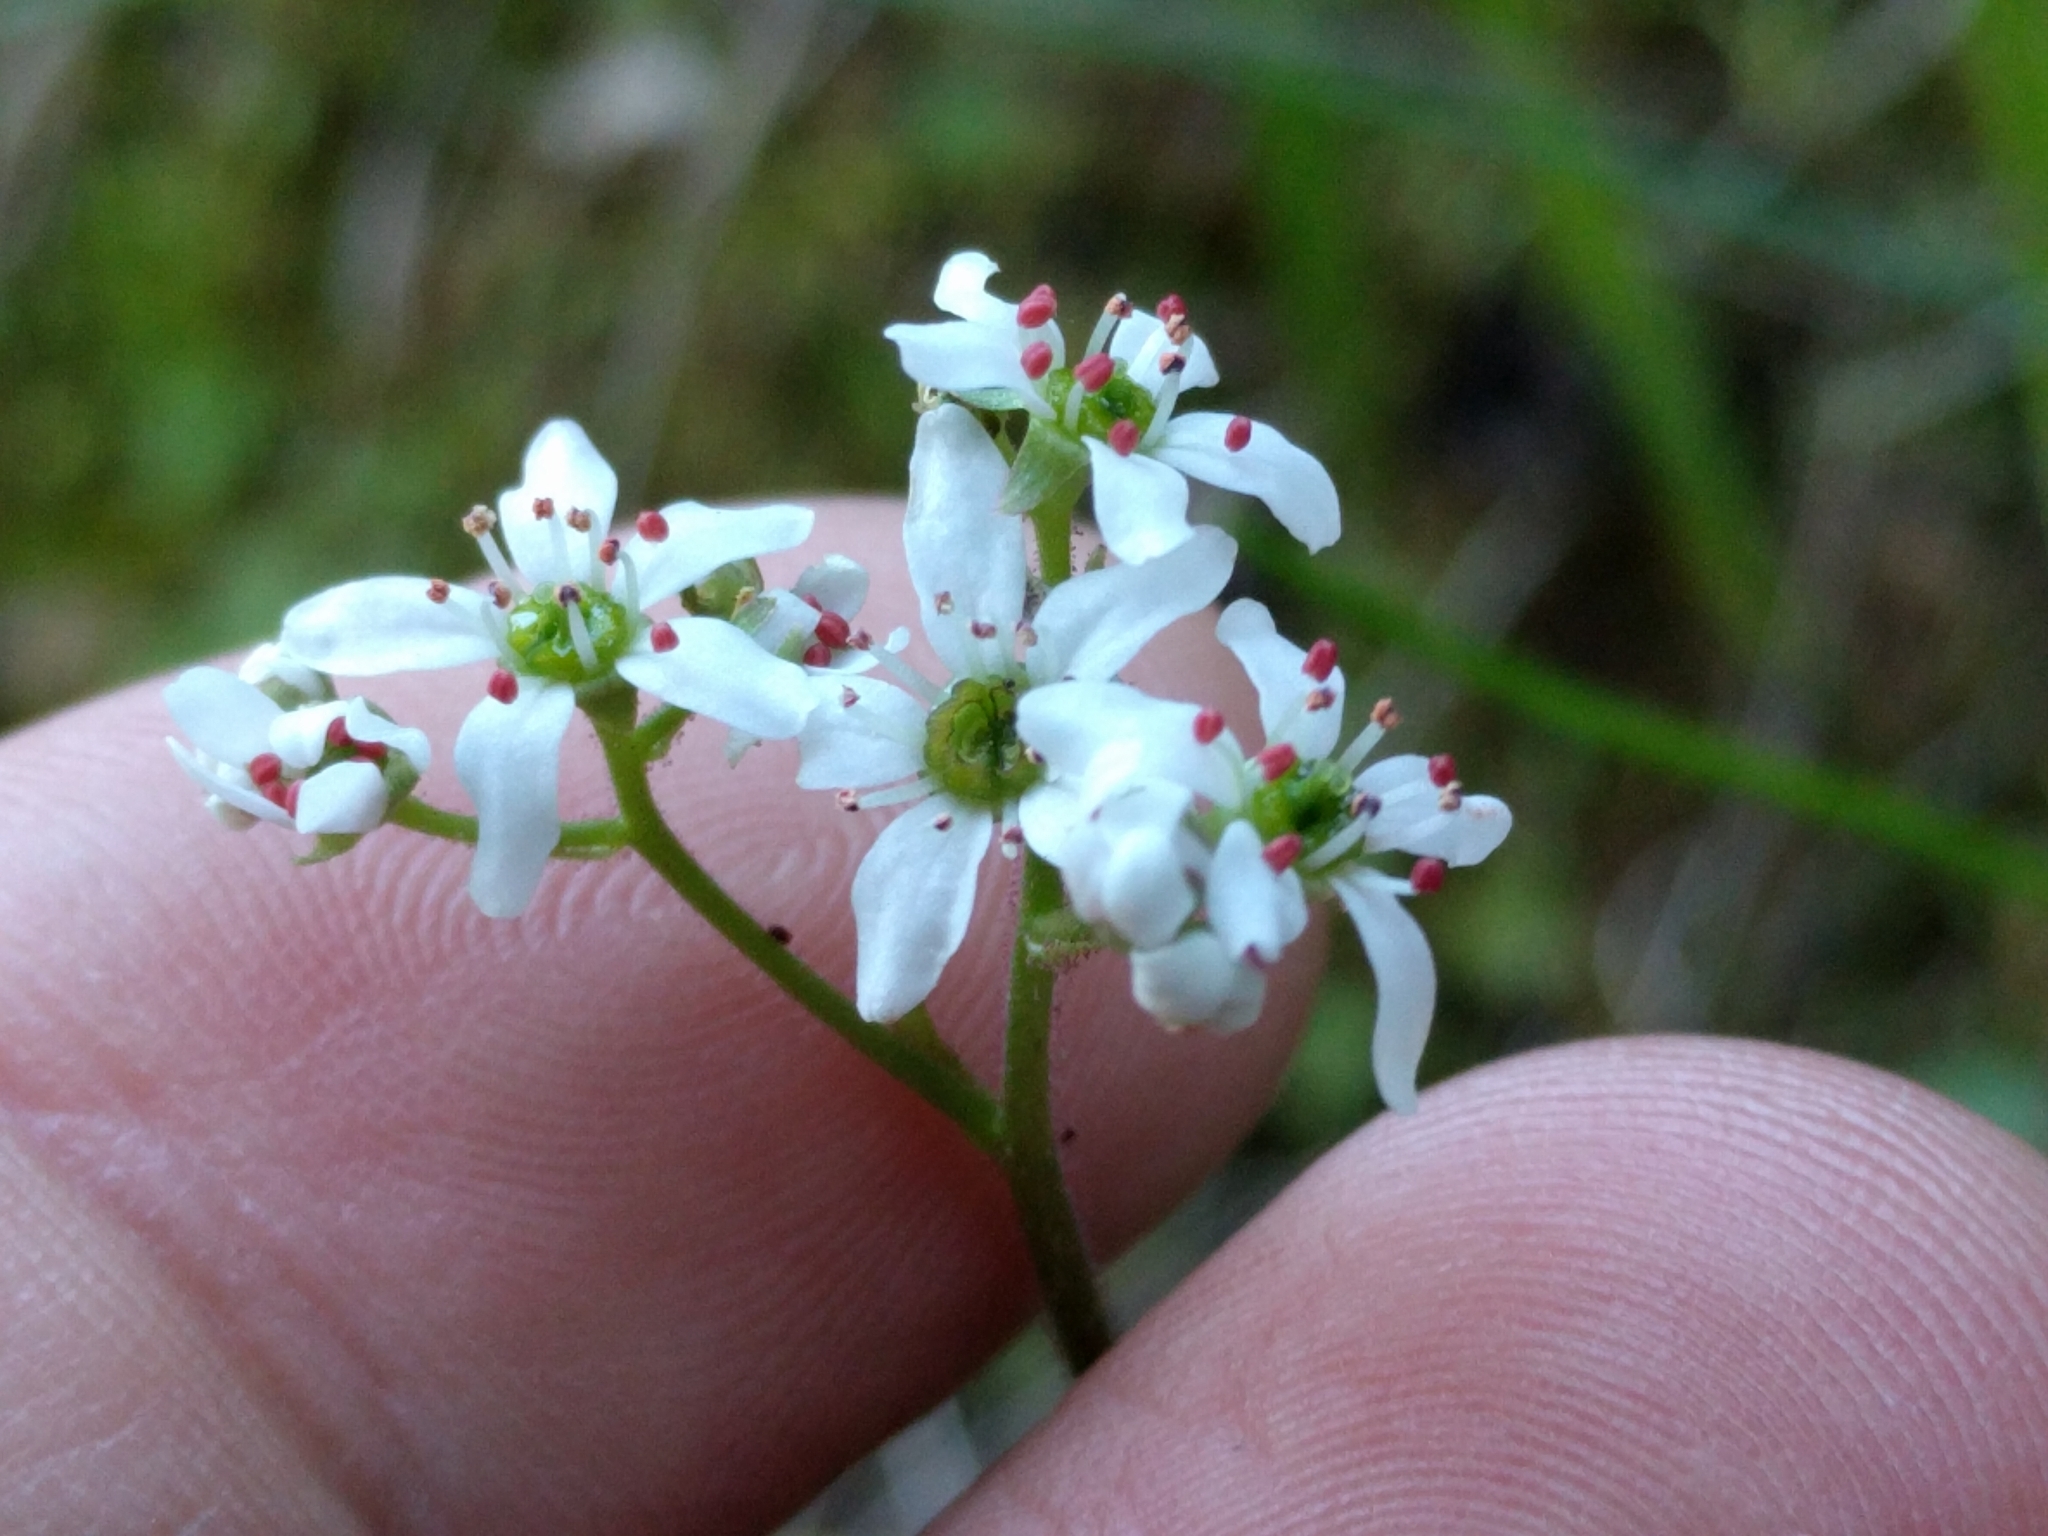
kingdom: Plantae
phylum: Tracheophyta
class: Magnoliopsida
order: Saxifragales
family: Saxifragaceae
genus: Micranthes
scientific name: Micranthes californica
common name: California saxifrage
